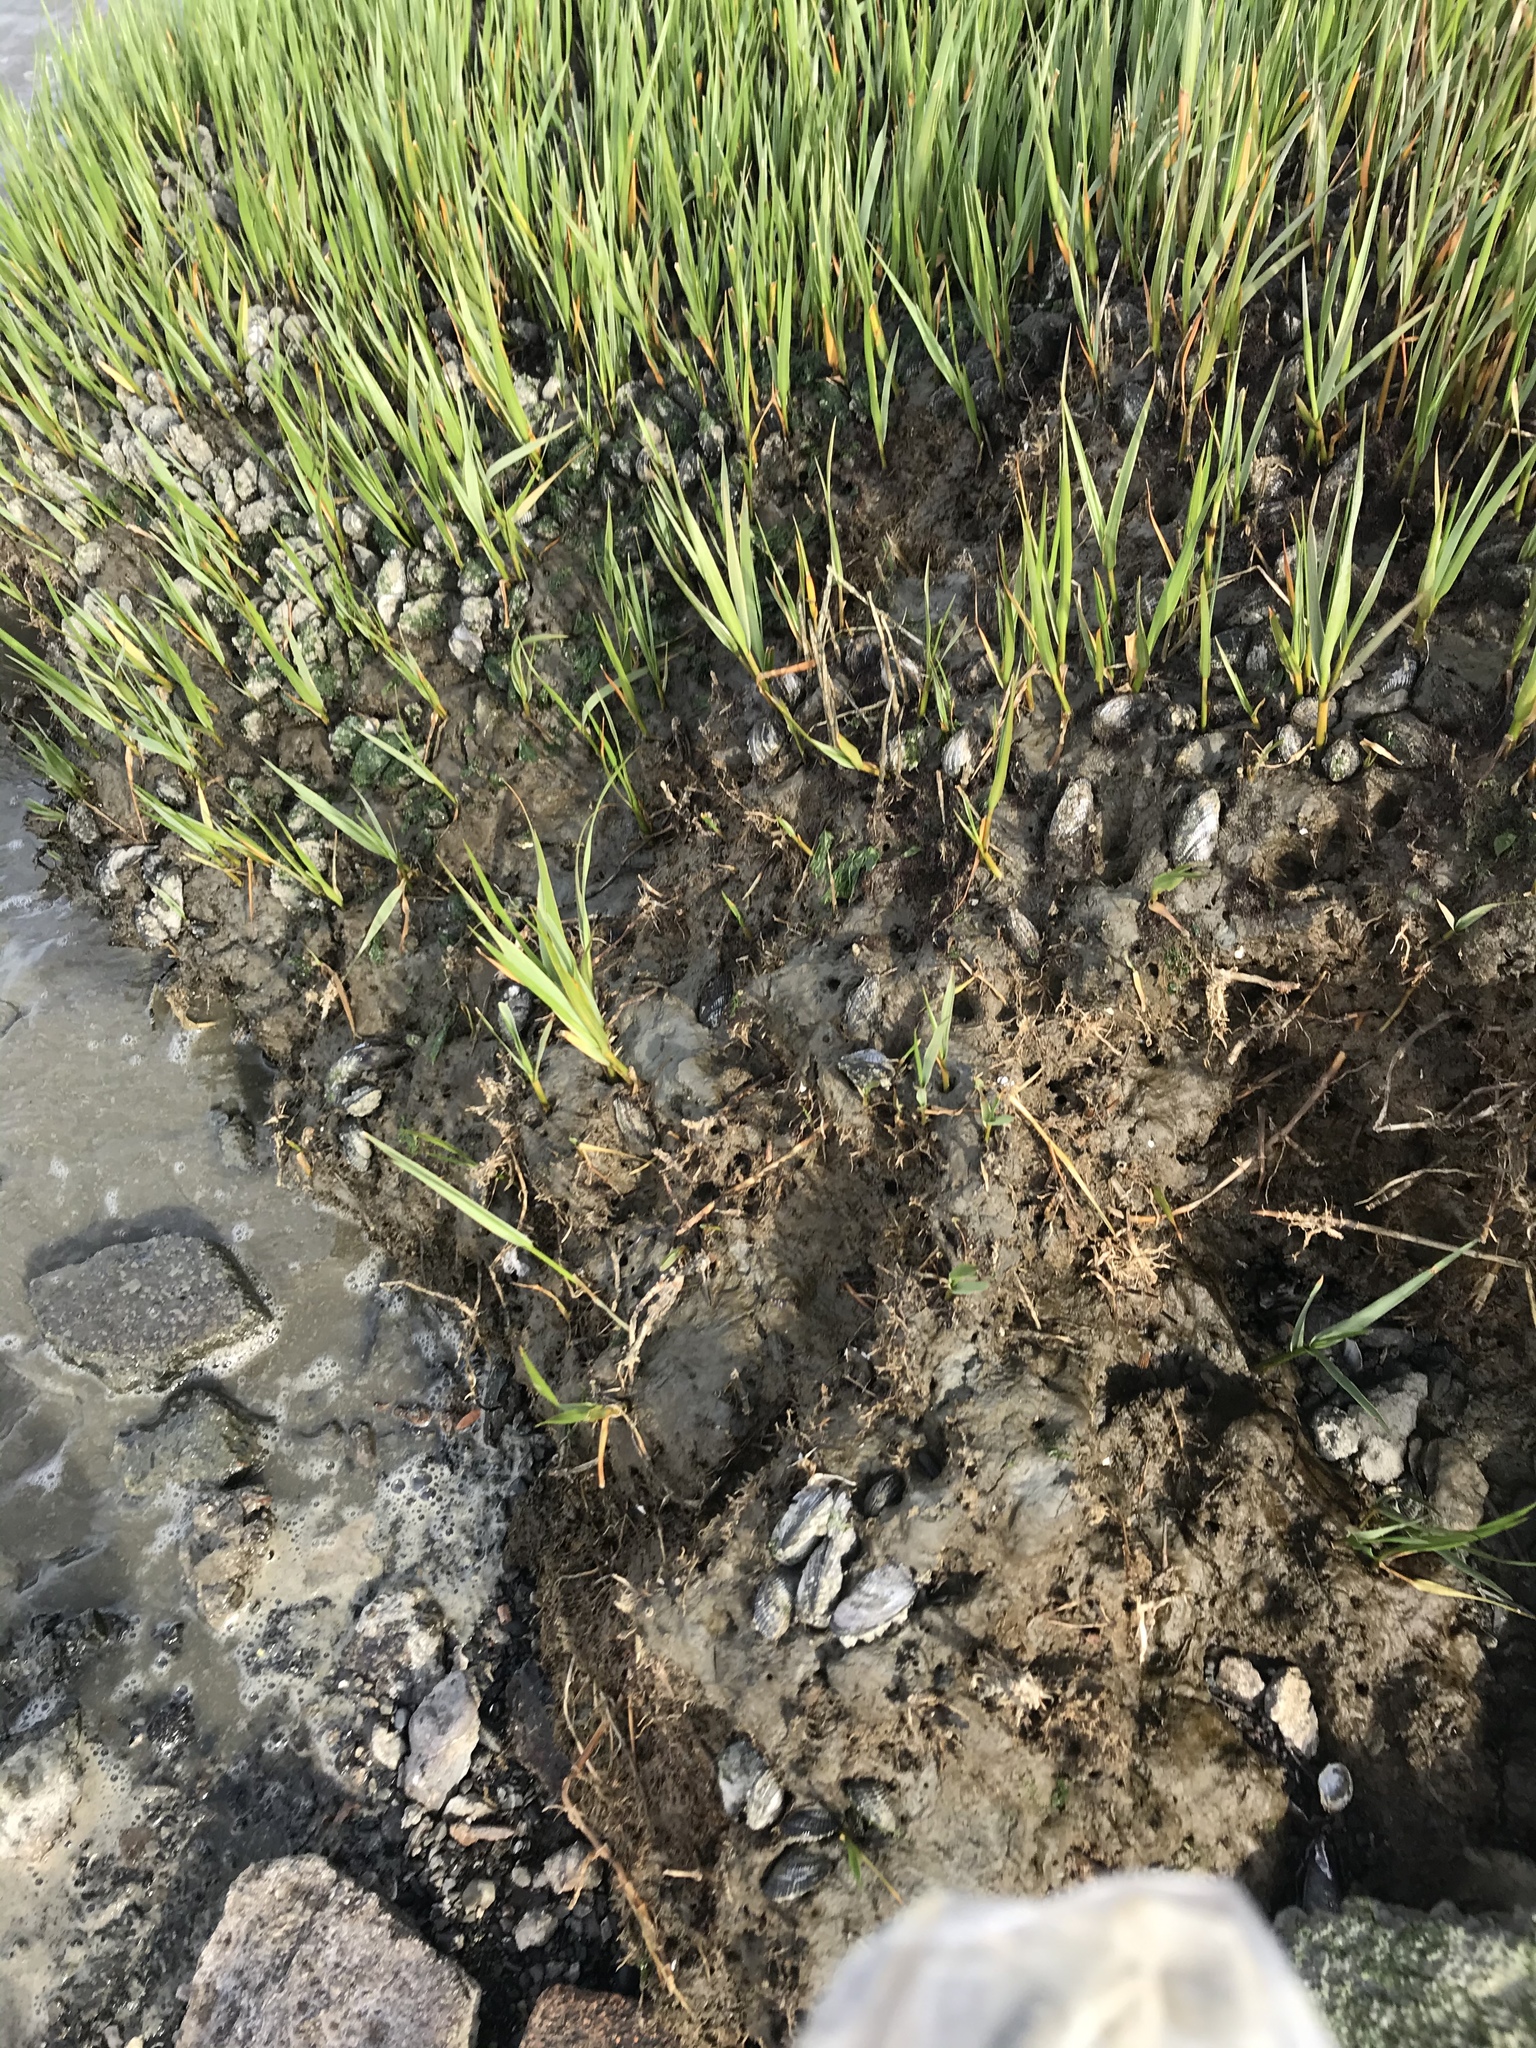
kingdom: Animalia
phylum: Mollusca
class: Bivalvia
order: Mytilida
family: Mytilidae
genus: Geukensia
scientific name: Geukensia demissa
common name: Ribbed mussel
